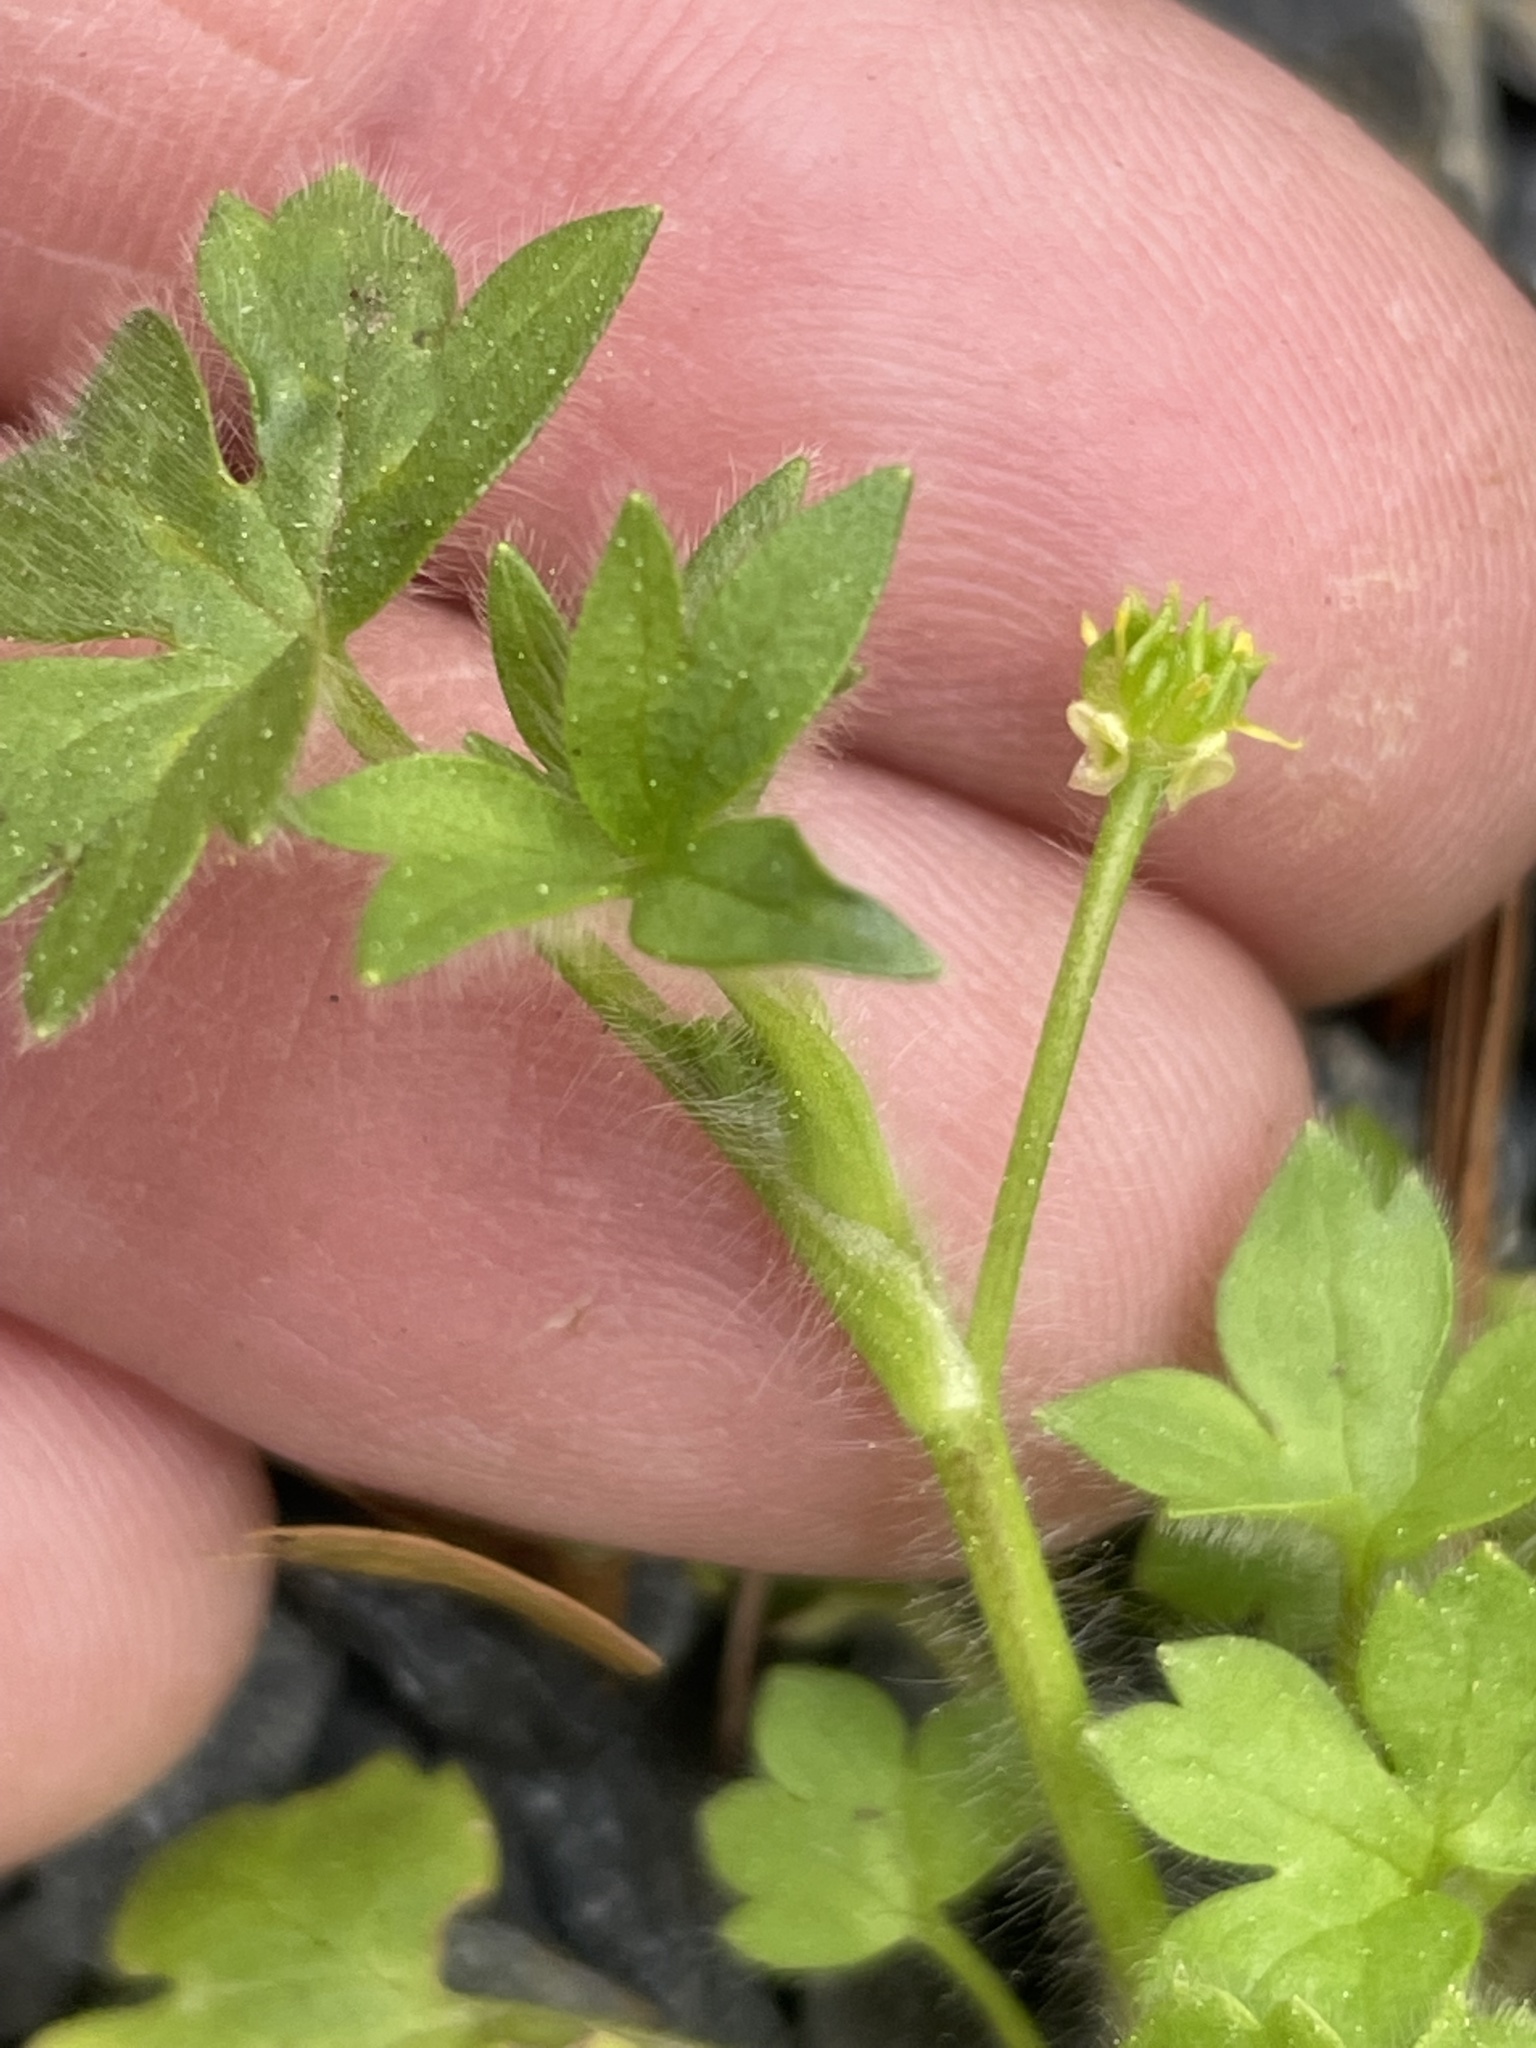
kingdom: Plantae
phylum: Tracheophyta
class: Magnoliopsida
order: Ranunculales
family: Ranunculaceae
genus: Ranunculus
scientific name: Ranunculus parviflorus
